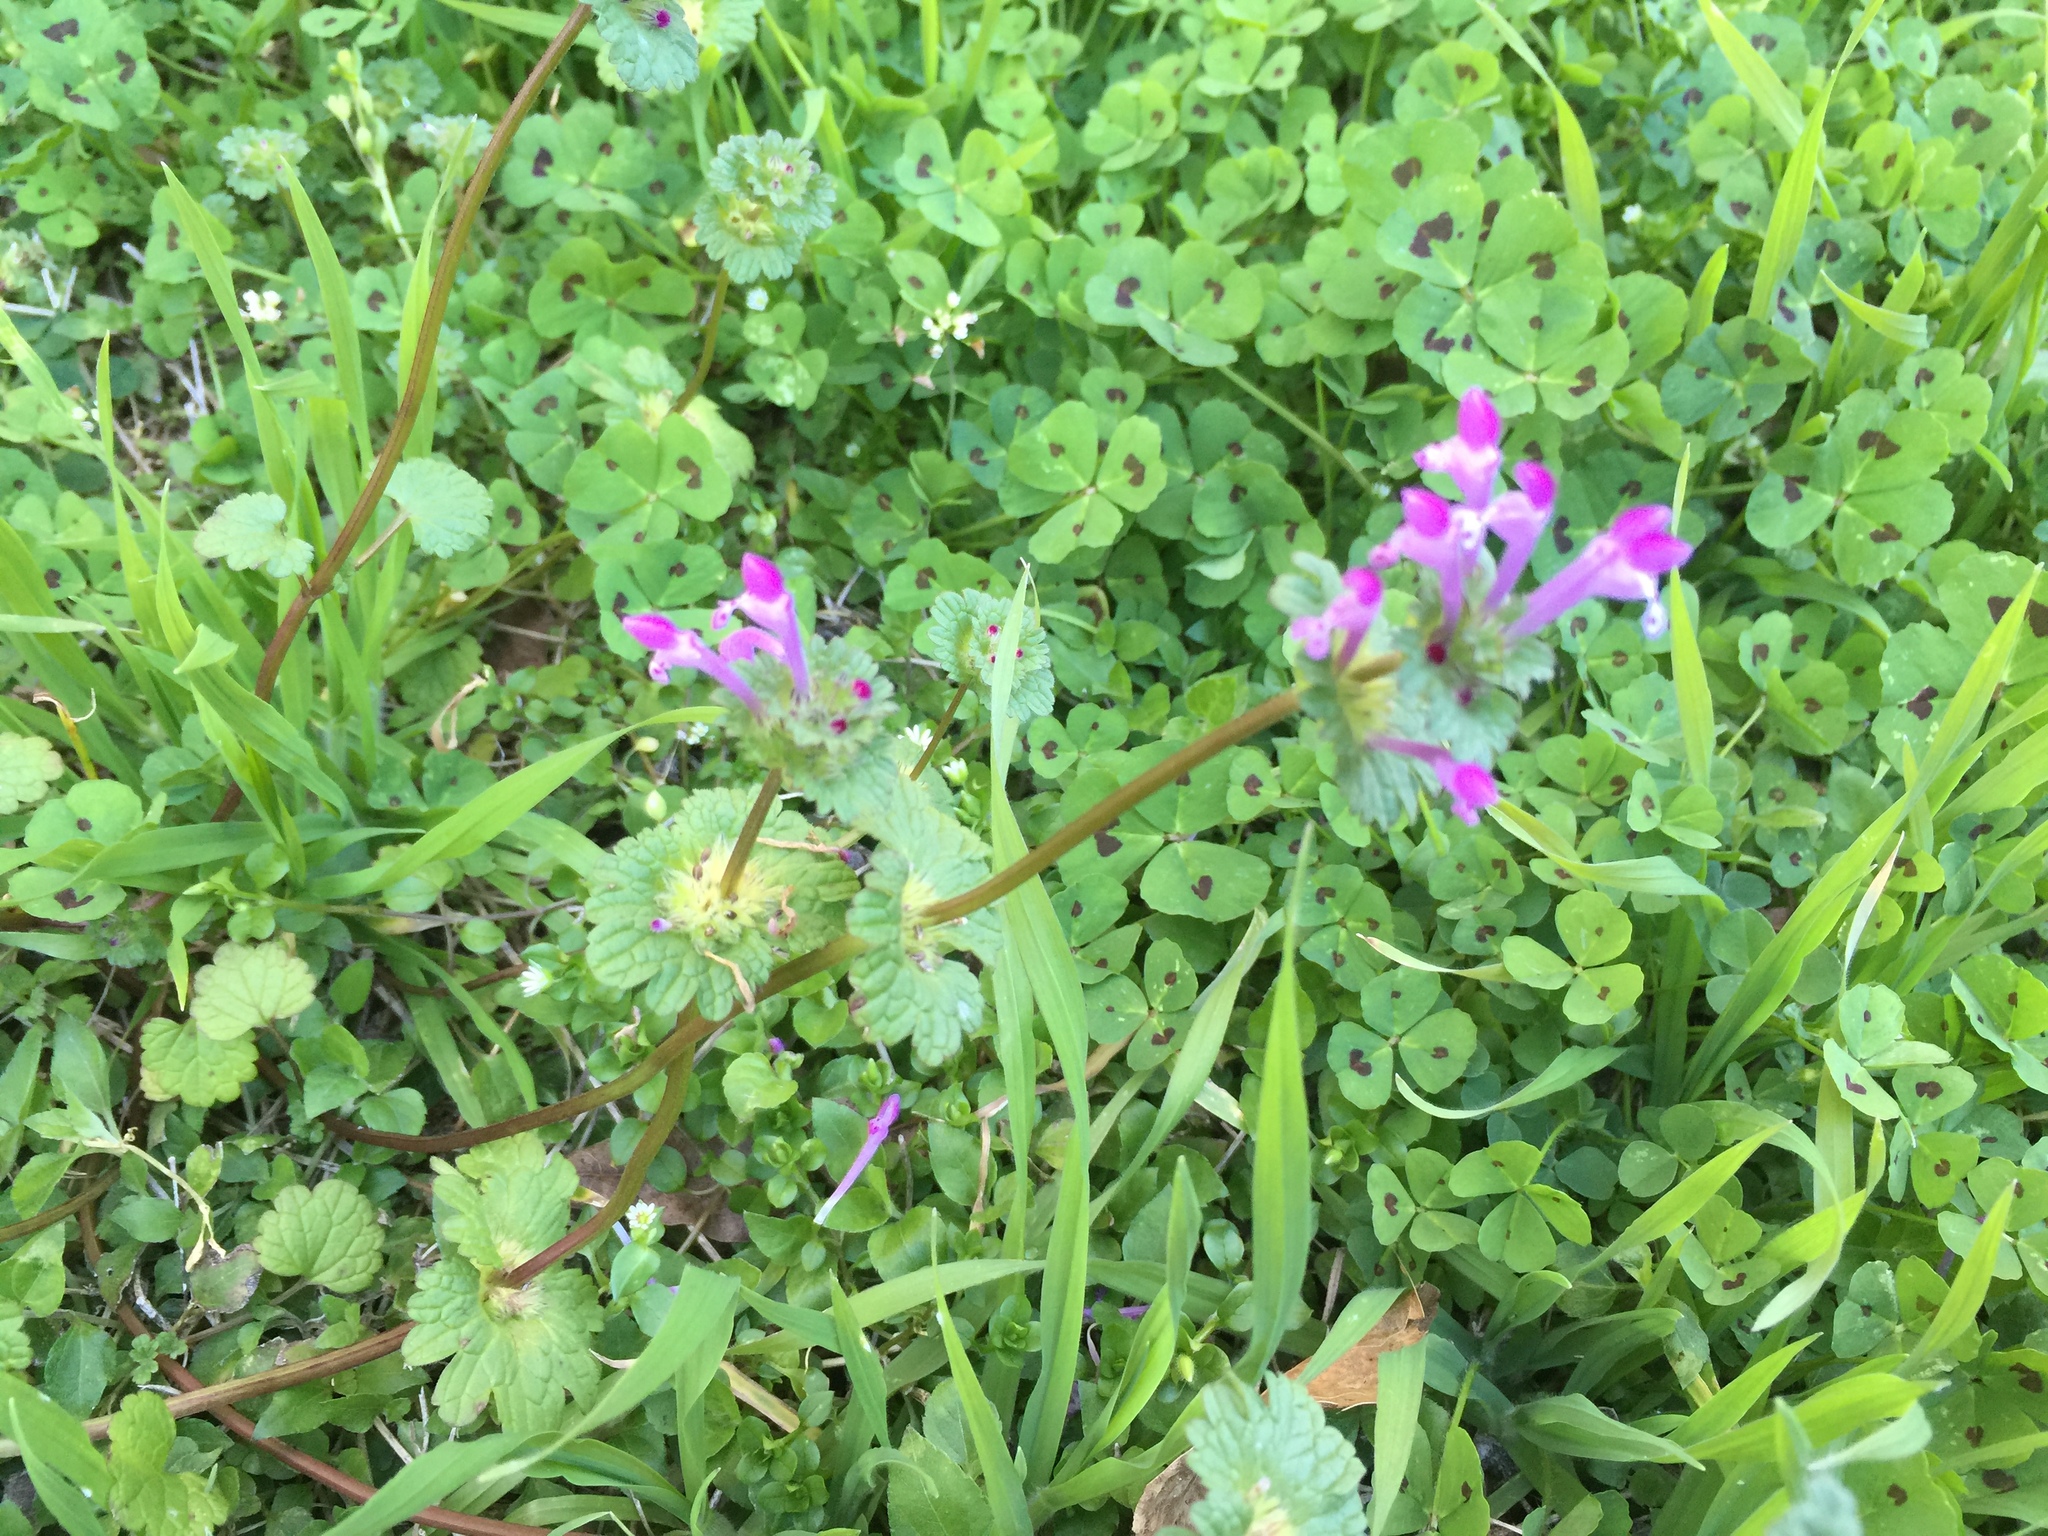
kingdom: Plantae
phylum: Tracheophyta
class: Magnoliopsida
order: Lamiales
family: Lamiaceae
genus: Lamium
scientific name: Lamium amplexicaule
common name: Henbit dead-nettle
